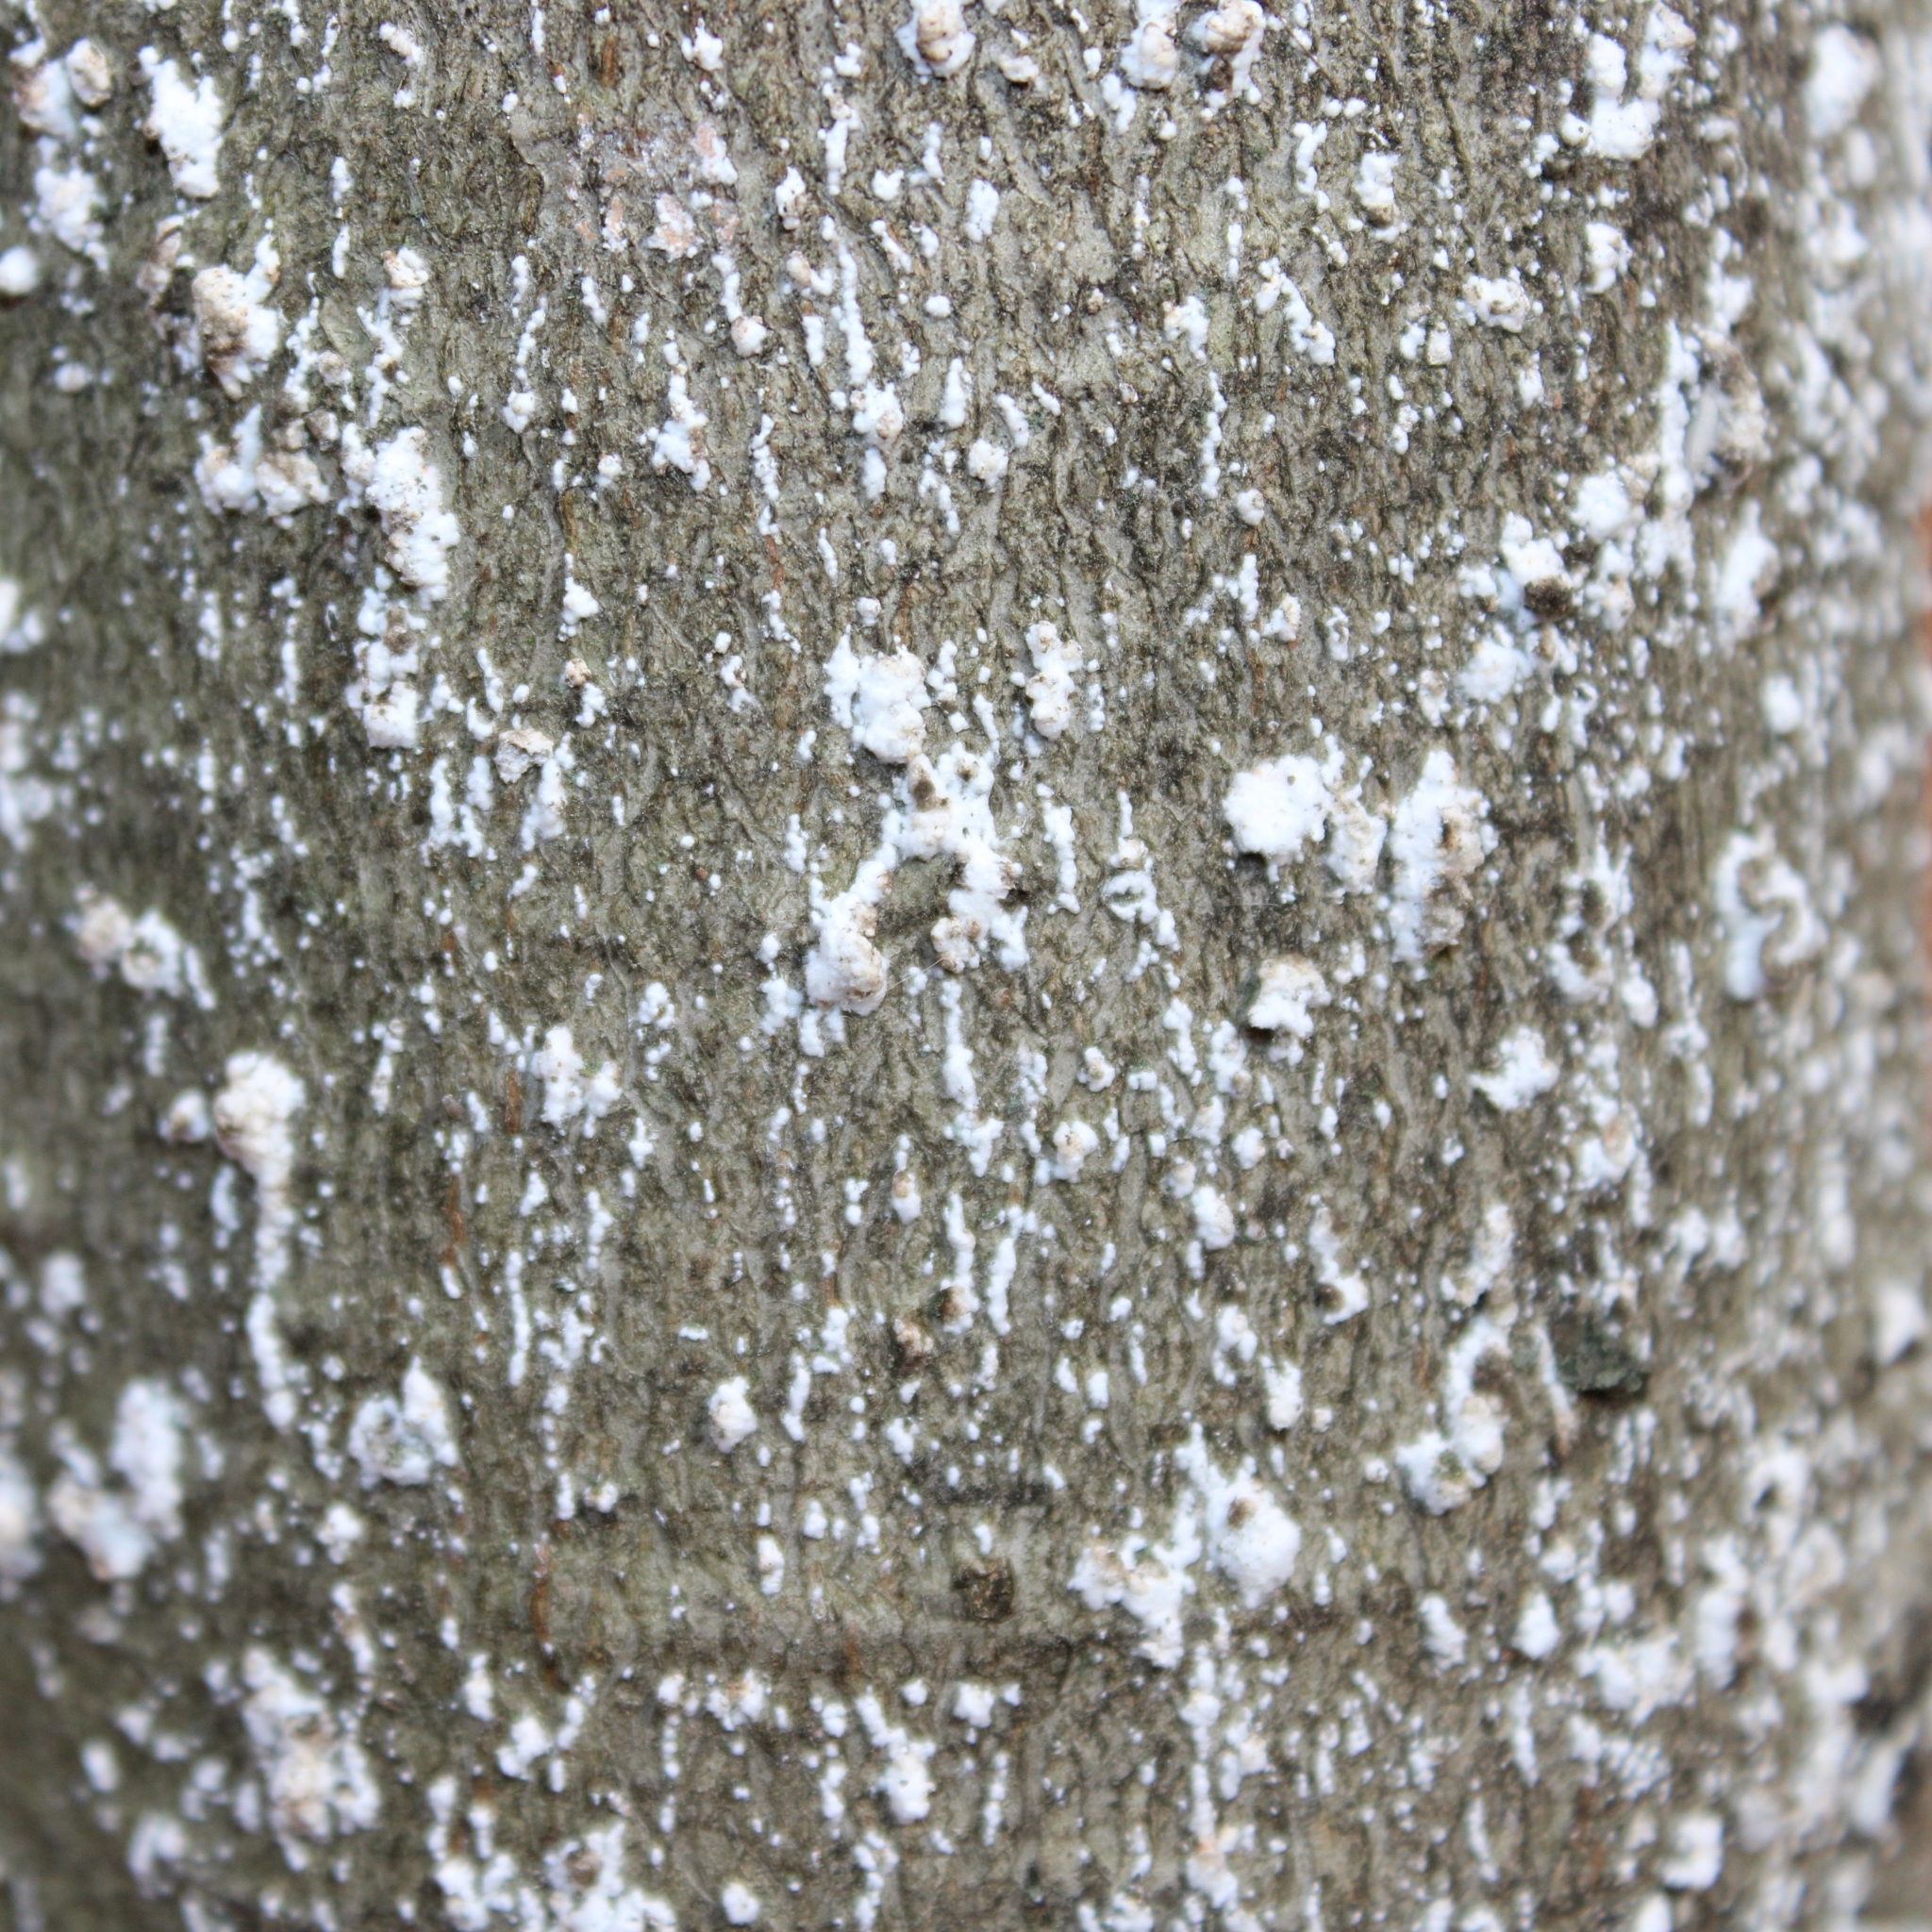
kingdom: Animalia
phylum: Arthropoda
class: Insecta
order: Hemiptera
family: Eriococcidae
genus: Cryptococcus
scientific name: Cryptococcus fagisuga
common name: Beech scale
